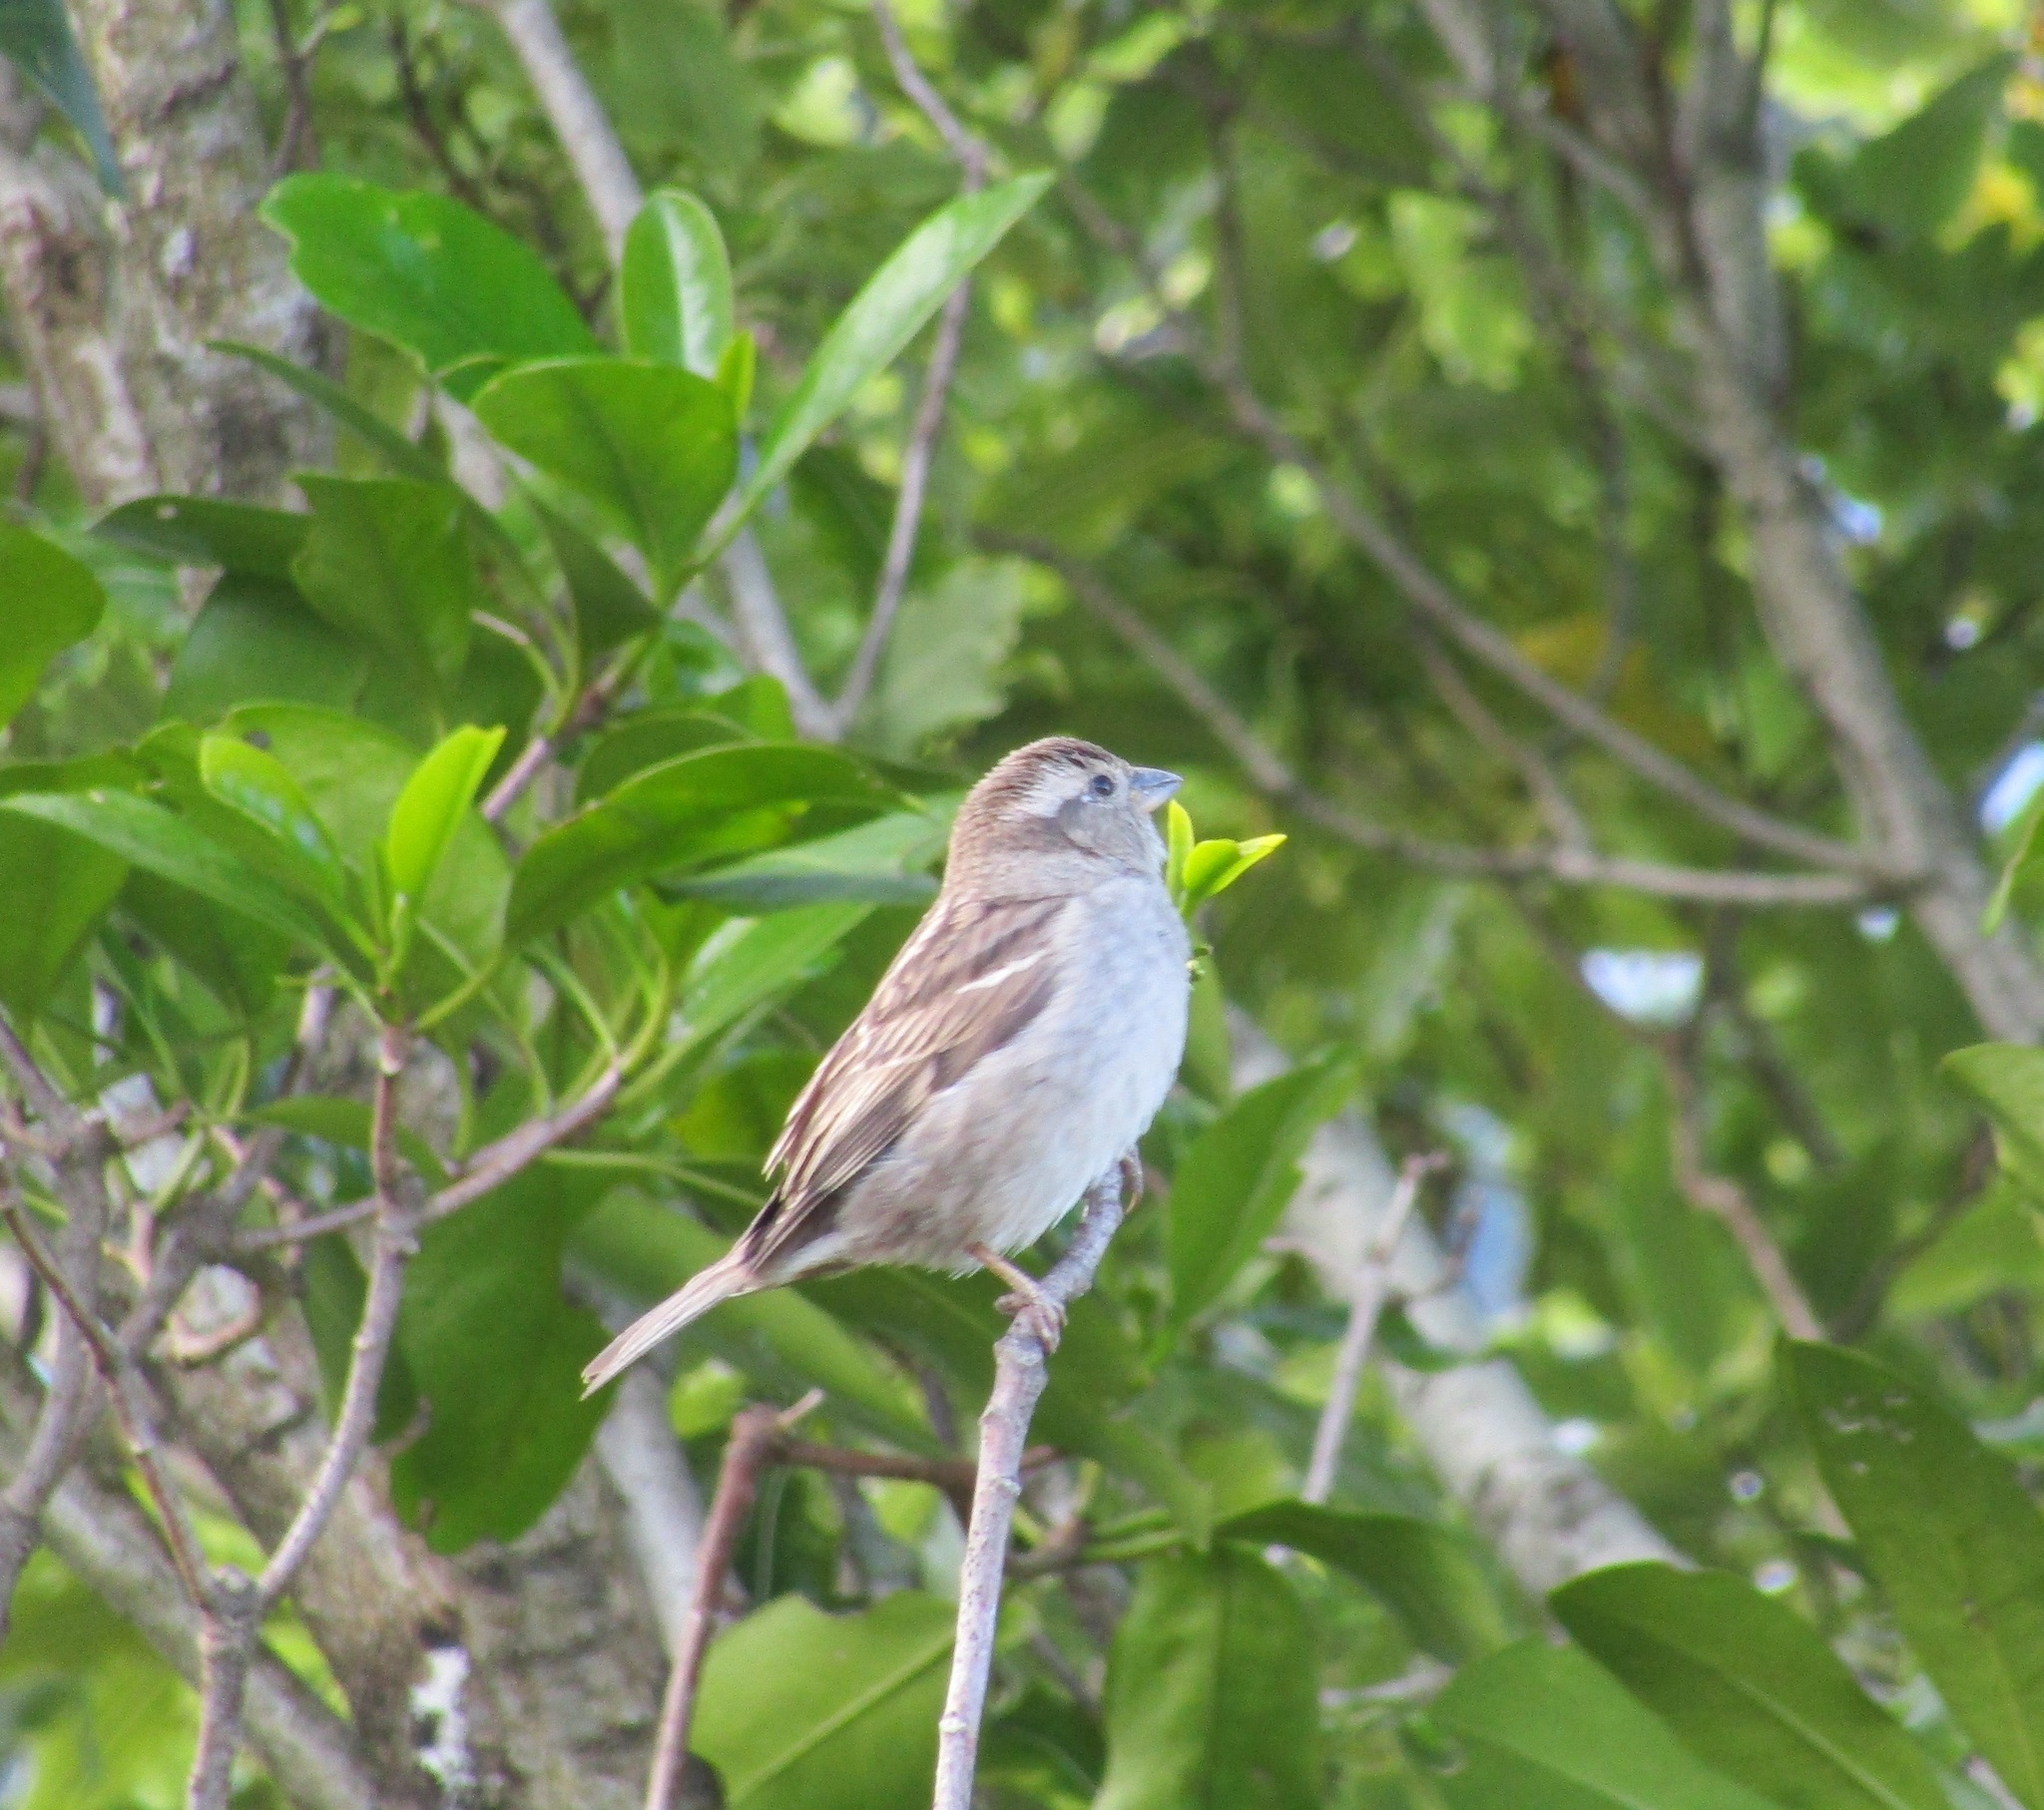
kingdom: Animalia
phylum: Chordata
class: Aves
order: Passeriformes
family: Passeridae
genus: Passer
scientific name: Passer domesticus
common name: House sparrow
